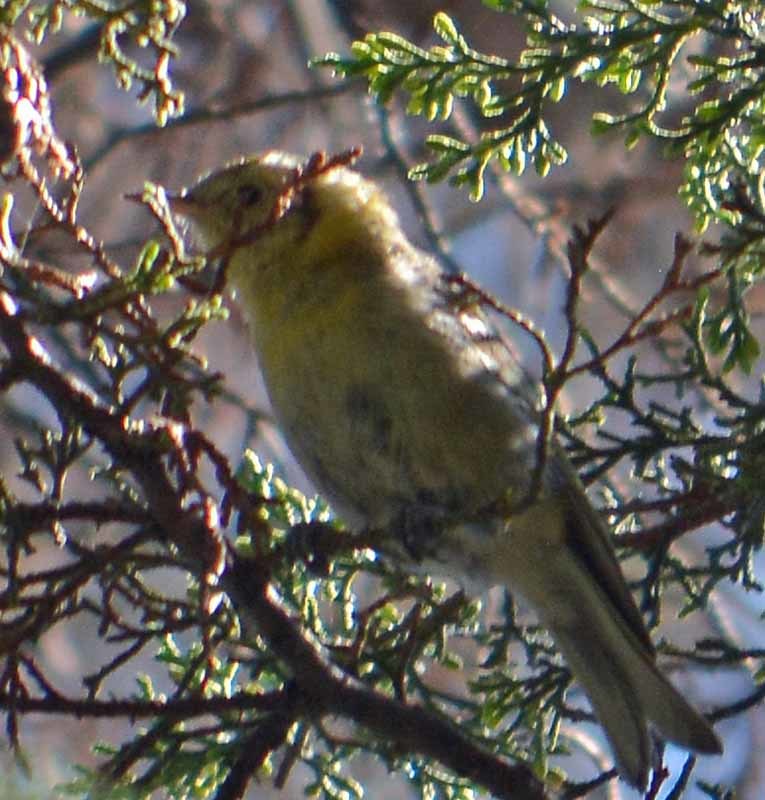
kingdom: Animalia
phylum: Chordata
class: Aves
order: Passeriformes
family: Peucedramidae
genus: Peucedramus
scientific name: Peucedramus taeniatus
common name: Olive warbler
